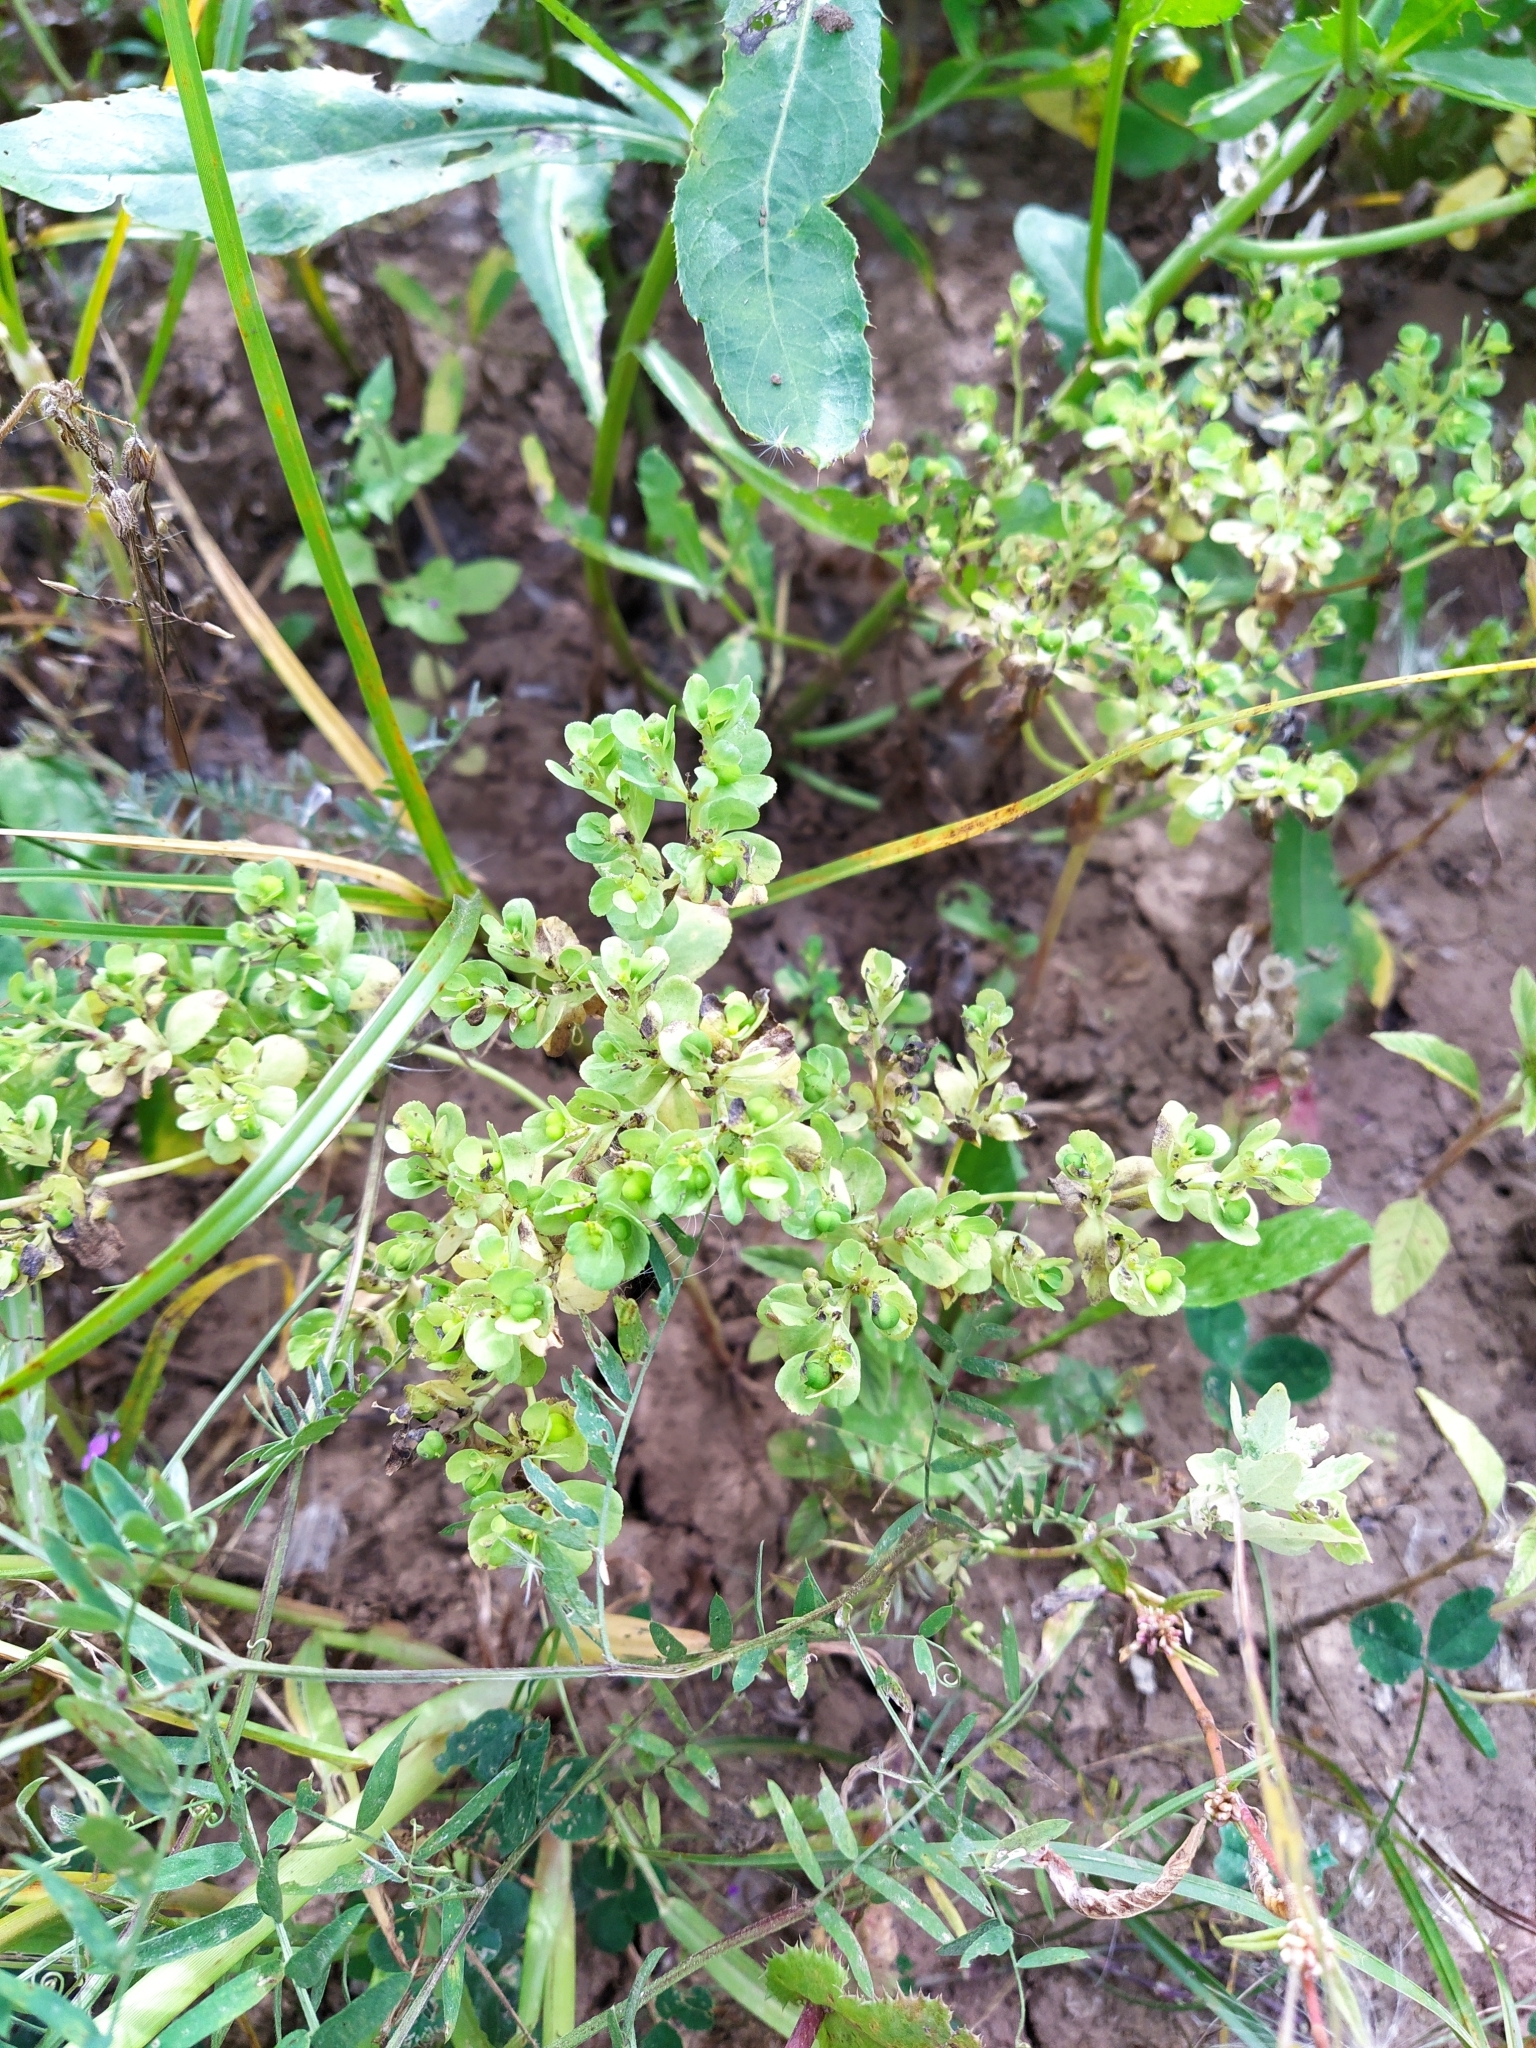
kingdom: Plantae
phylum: Tracheophyta
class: Magnoliopsida
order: Malpighiales
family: Euphorbiaceae
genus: Euphorbia
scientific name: Euphorbia helioscopia
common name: Sun spurge
